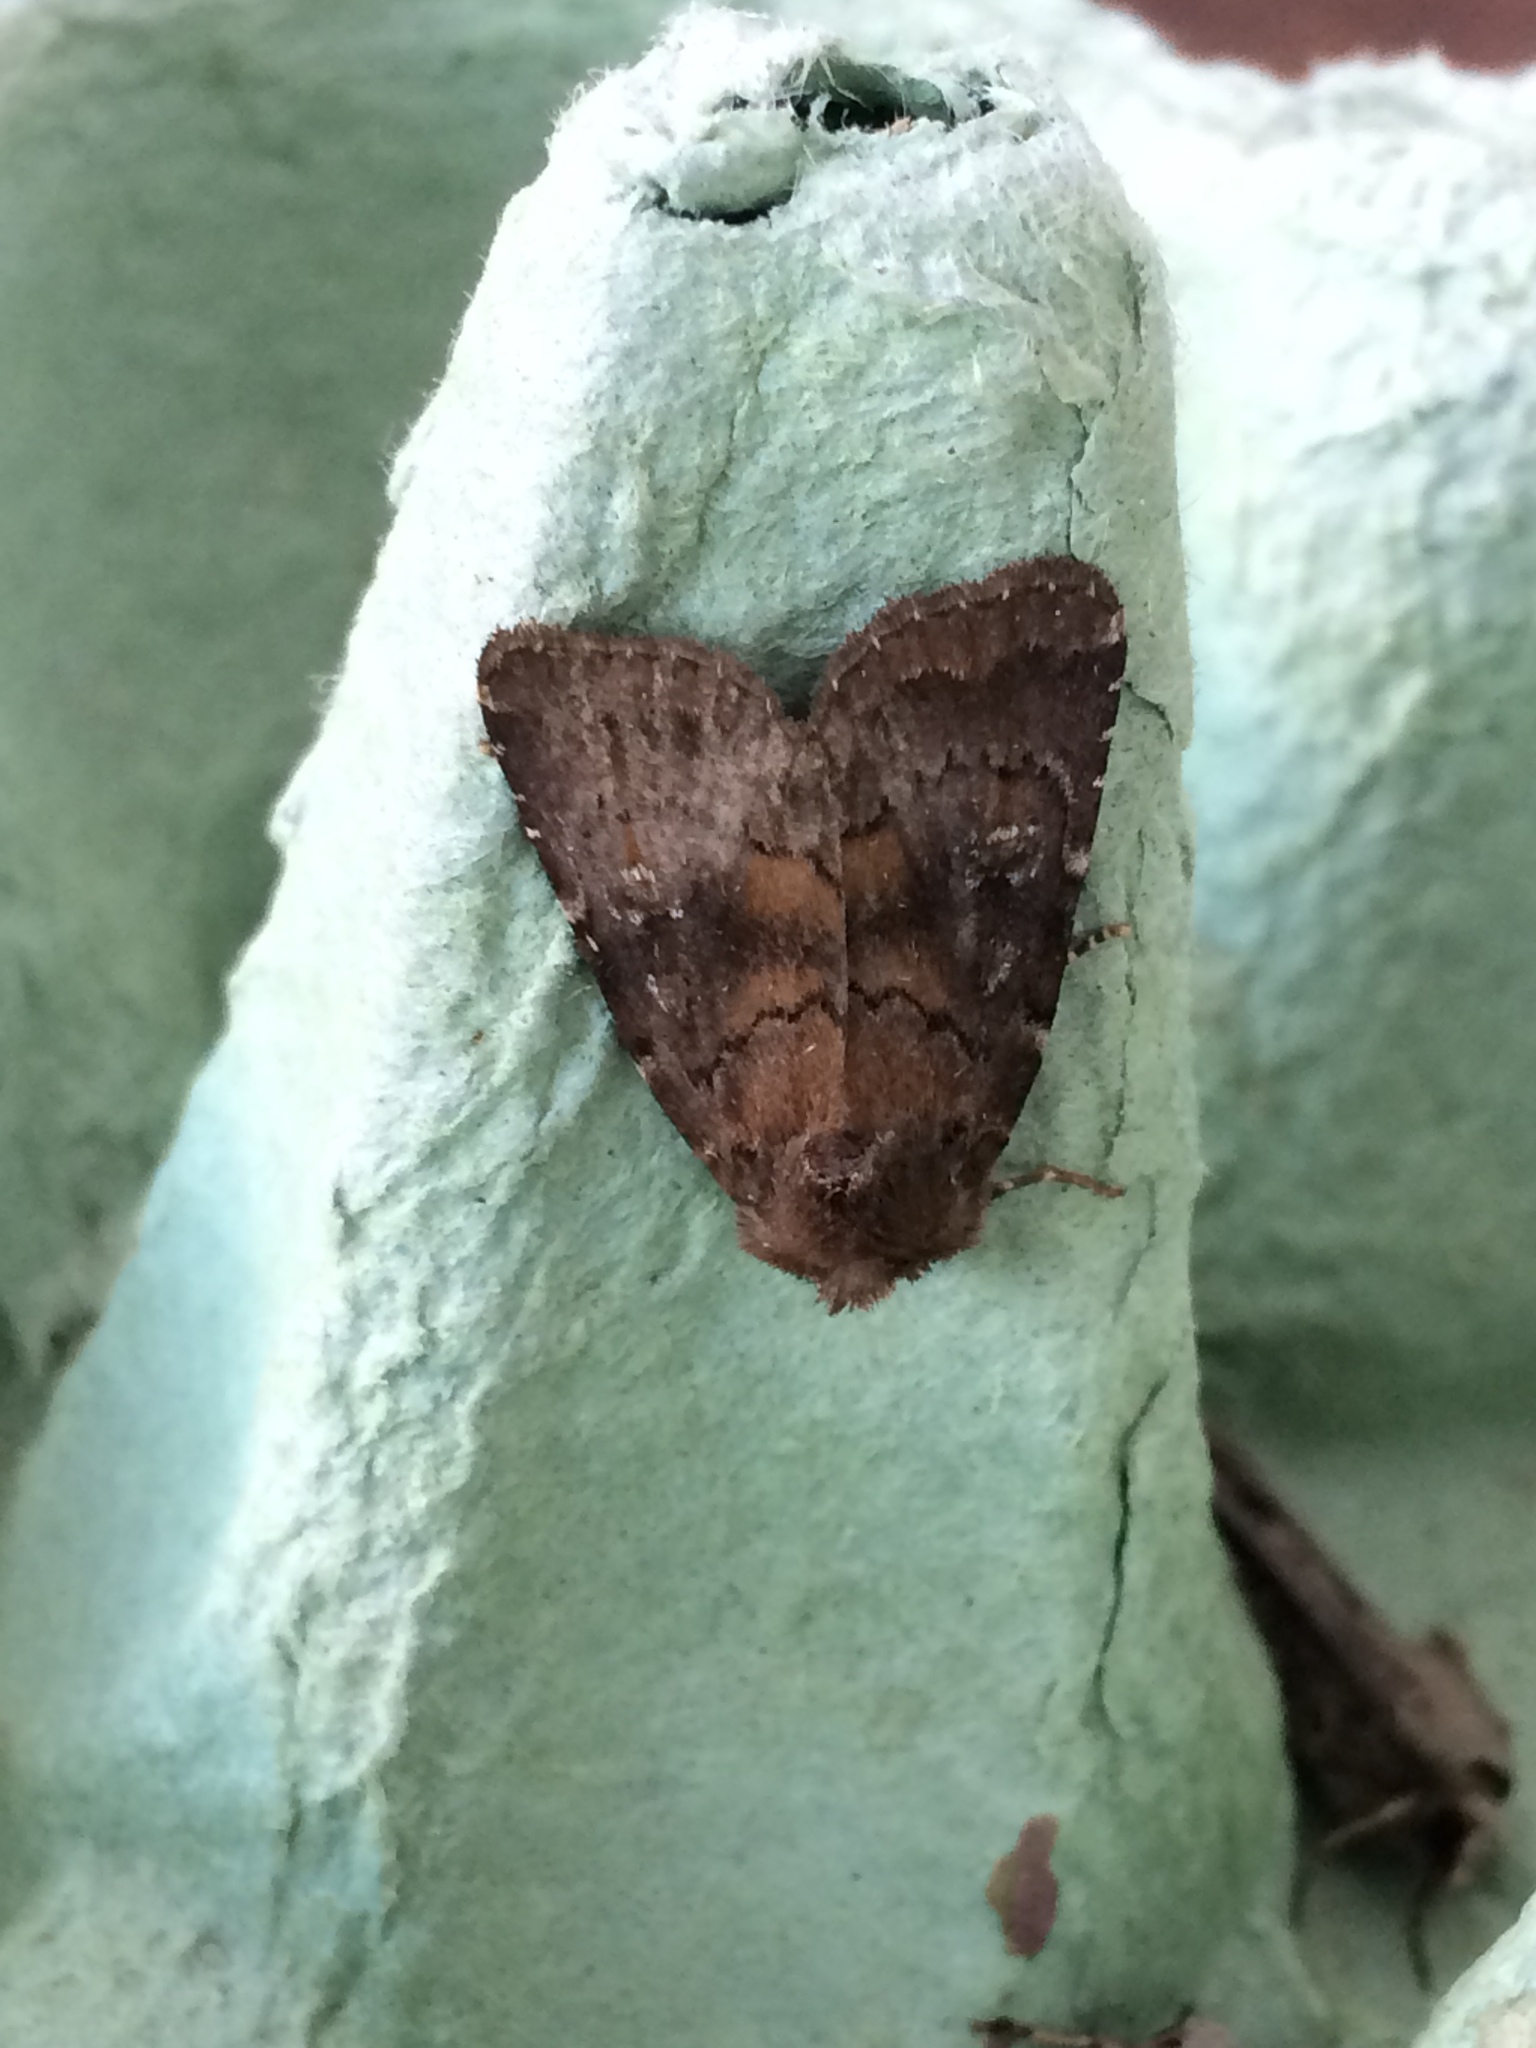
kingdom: Animalia
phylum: Arthropoda
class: Insecta
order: Lepidoptera
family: Noctuidae
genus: Charanyca
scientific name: Charanyca ferruginea
